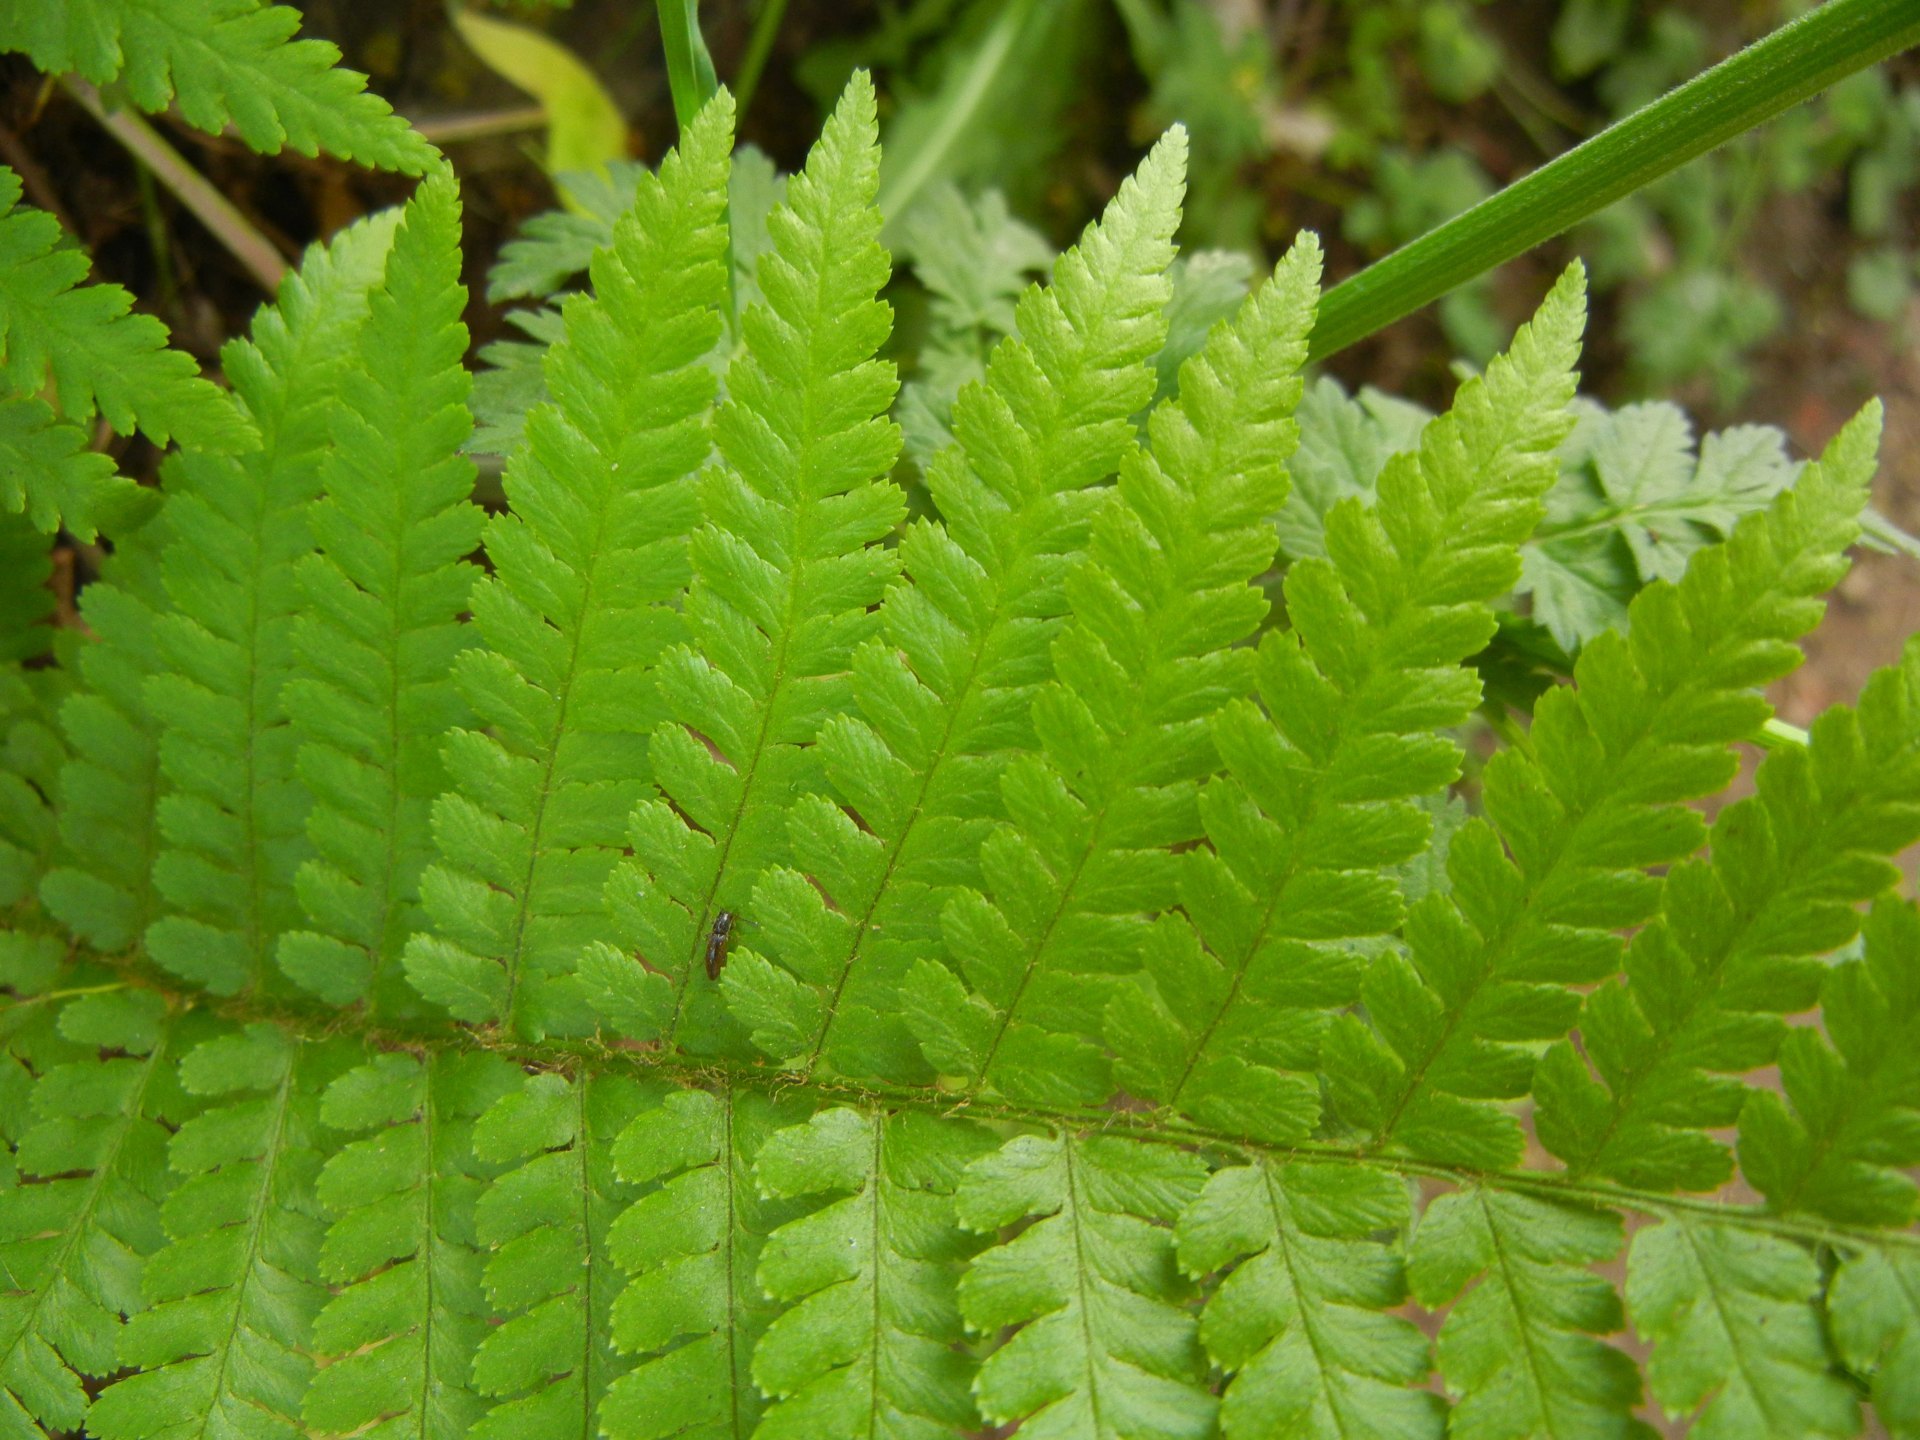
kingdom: Plantae
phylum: Tracheophyta
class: Polypodiopsida
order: Polypodiales
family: Dryopteridaceae
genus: Dryopteris
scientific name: Dryopteris filix-mas
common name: Male fern
